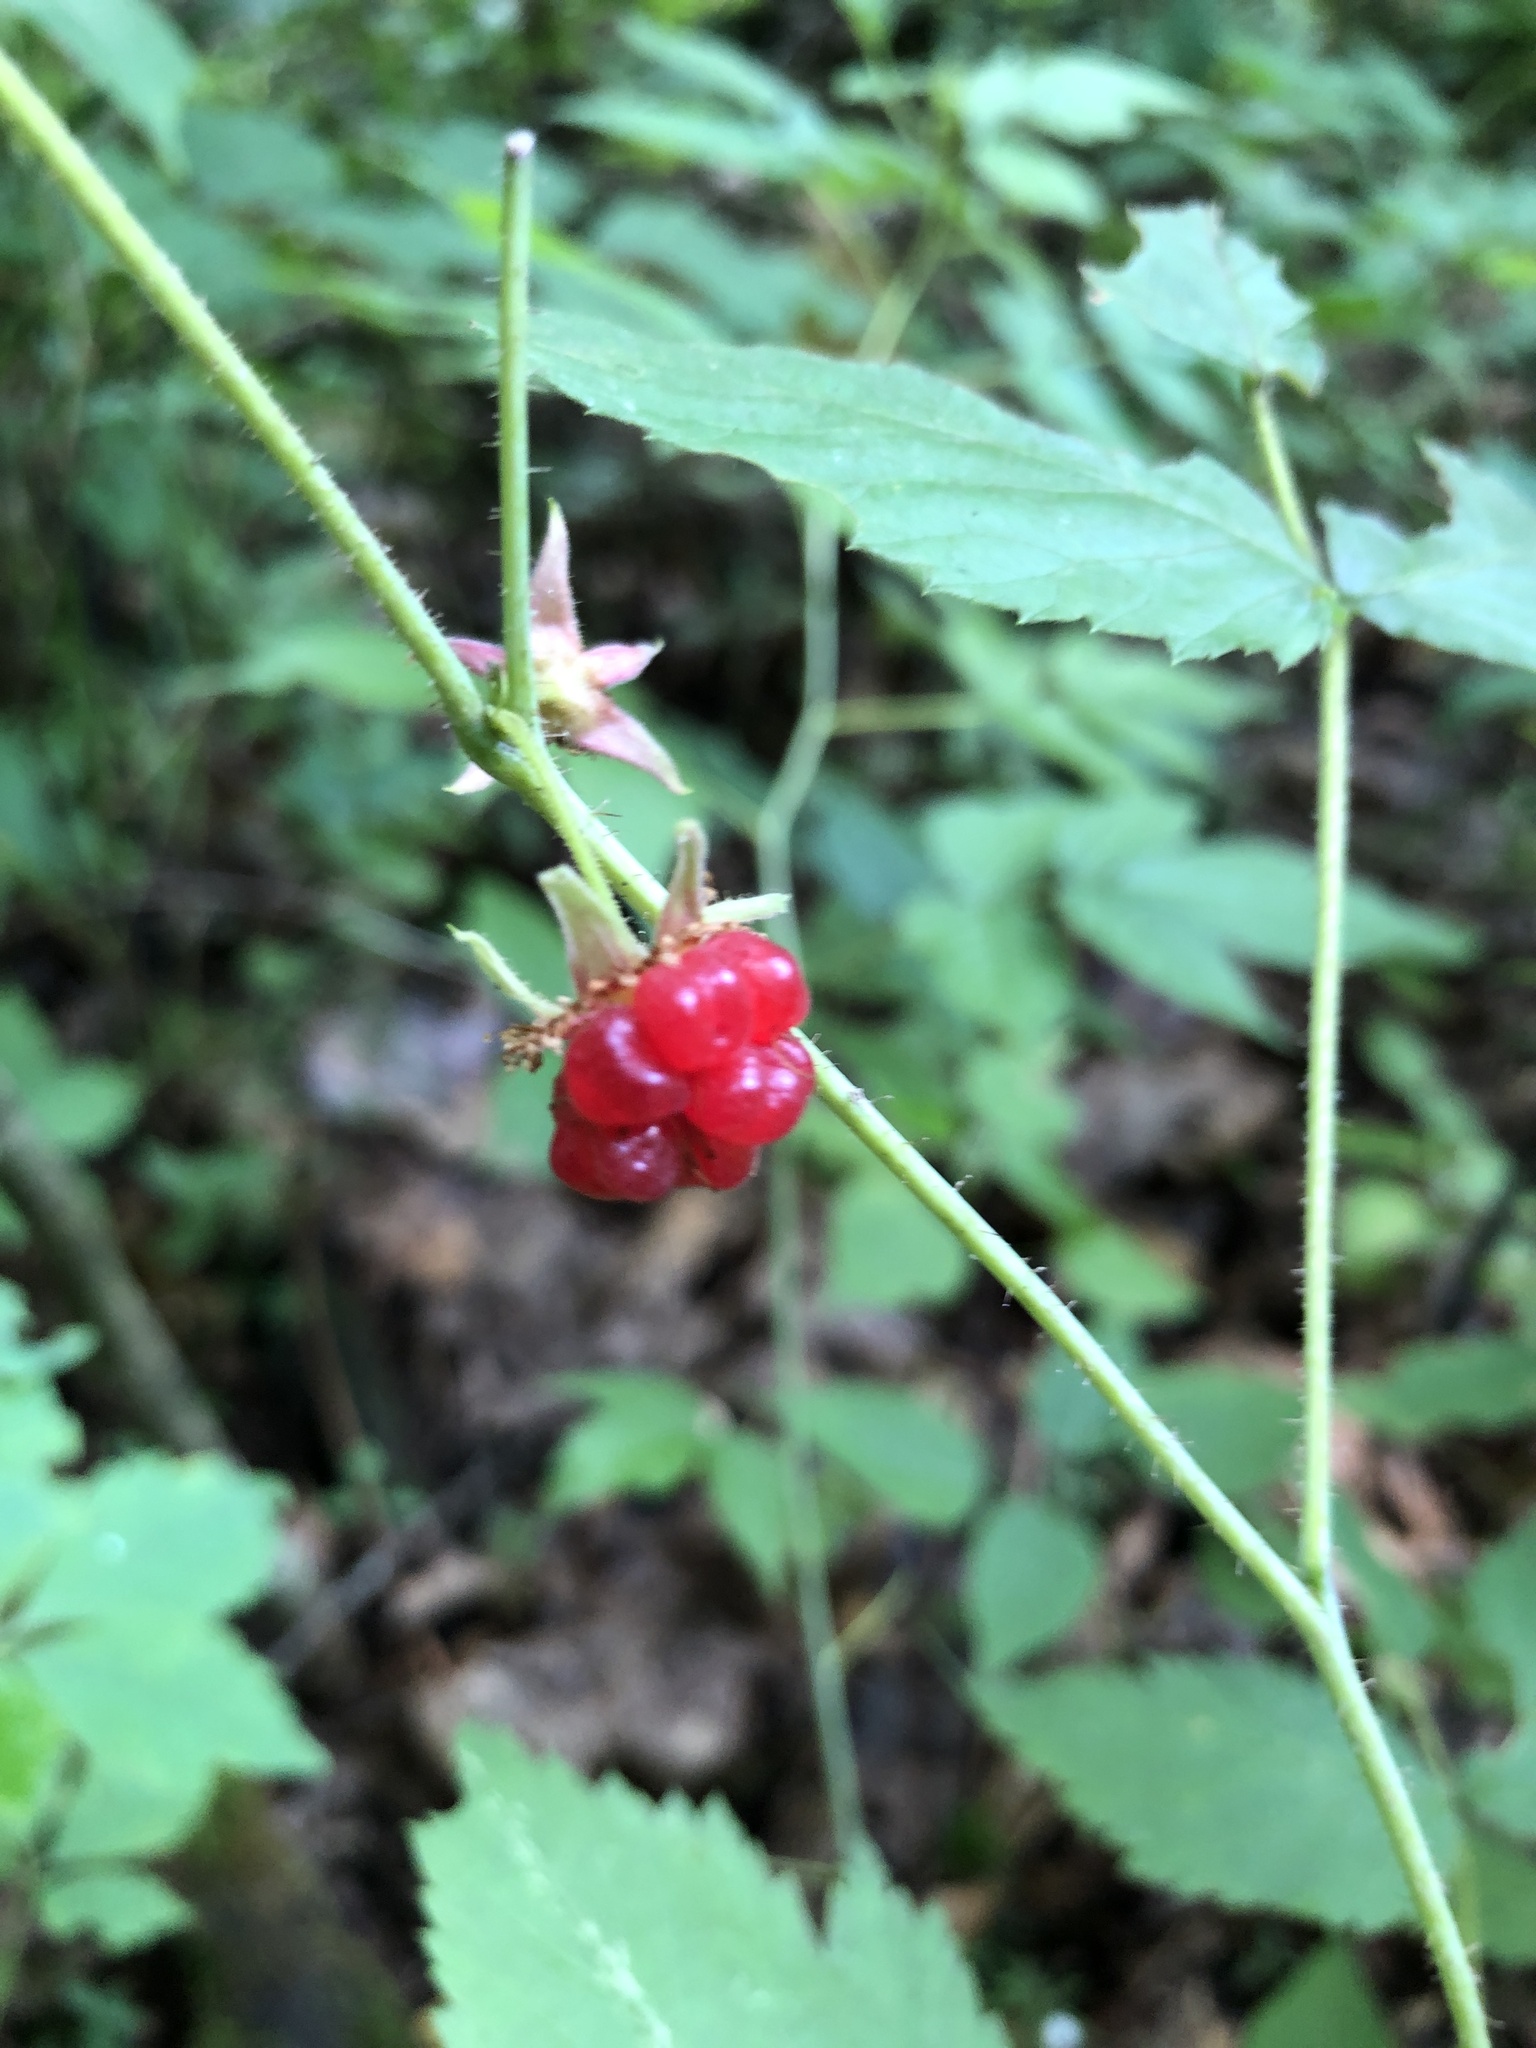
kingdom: Plantae
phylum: Tracheophyta
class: Magnoliopsida
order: Rosales
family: Rosaceae
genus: Rubus
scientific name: Rubus idaeus
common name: Raspberry
